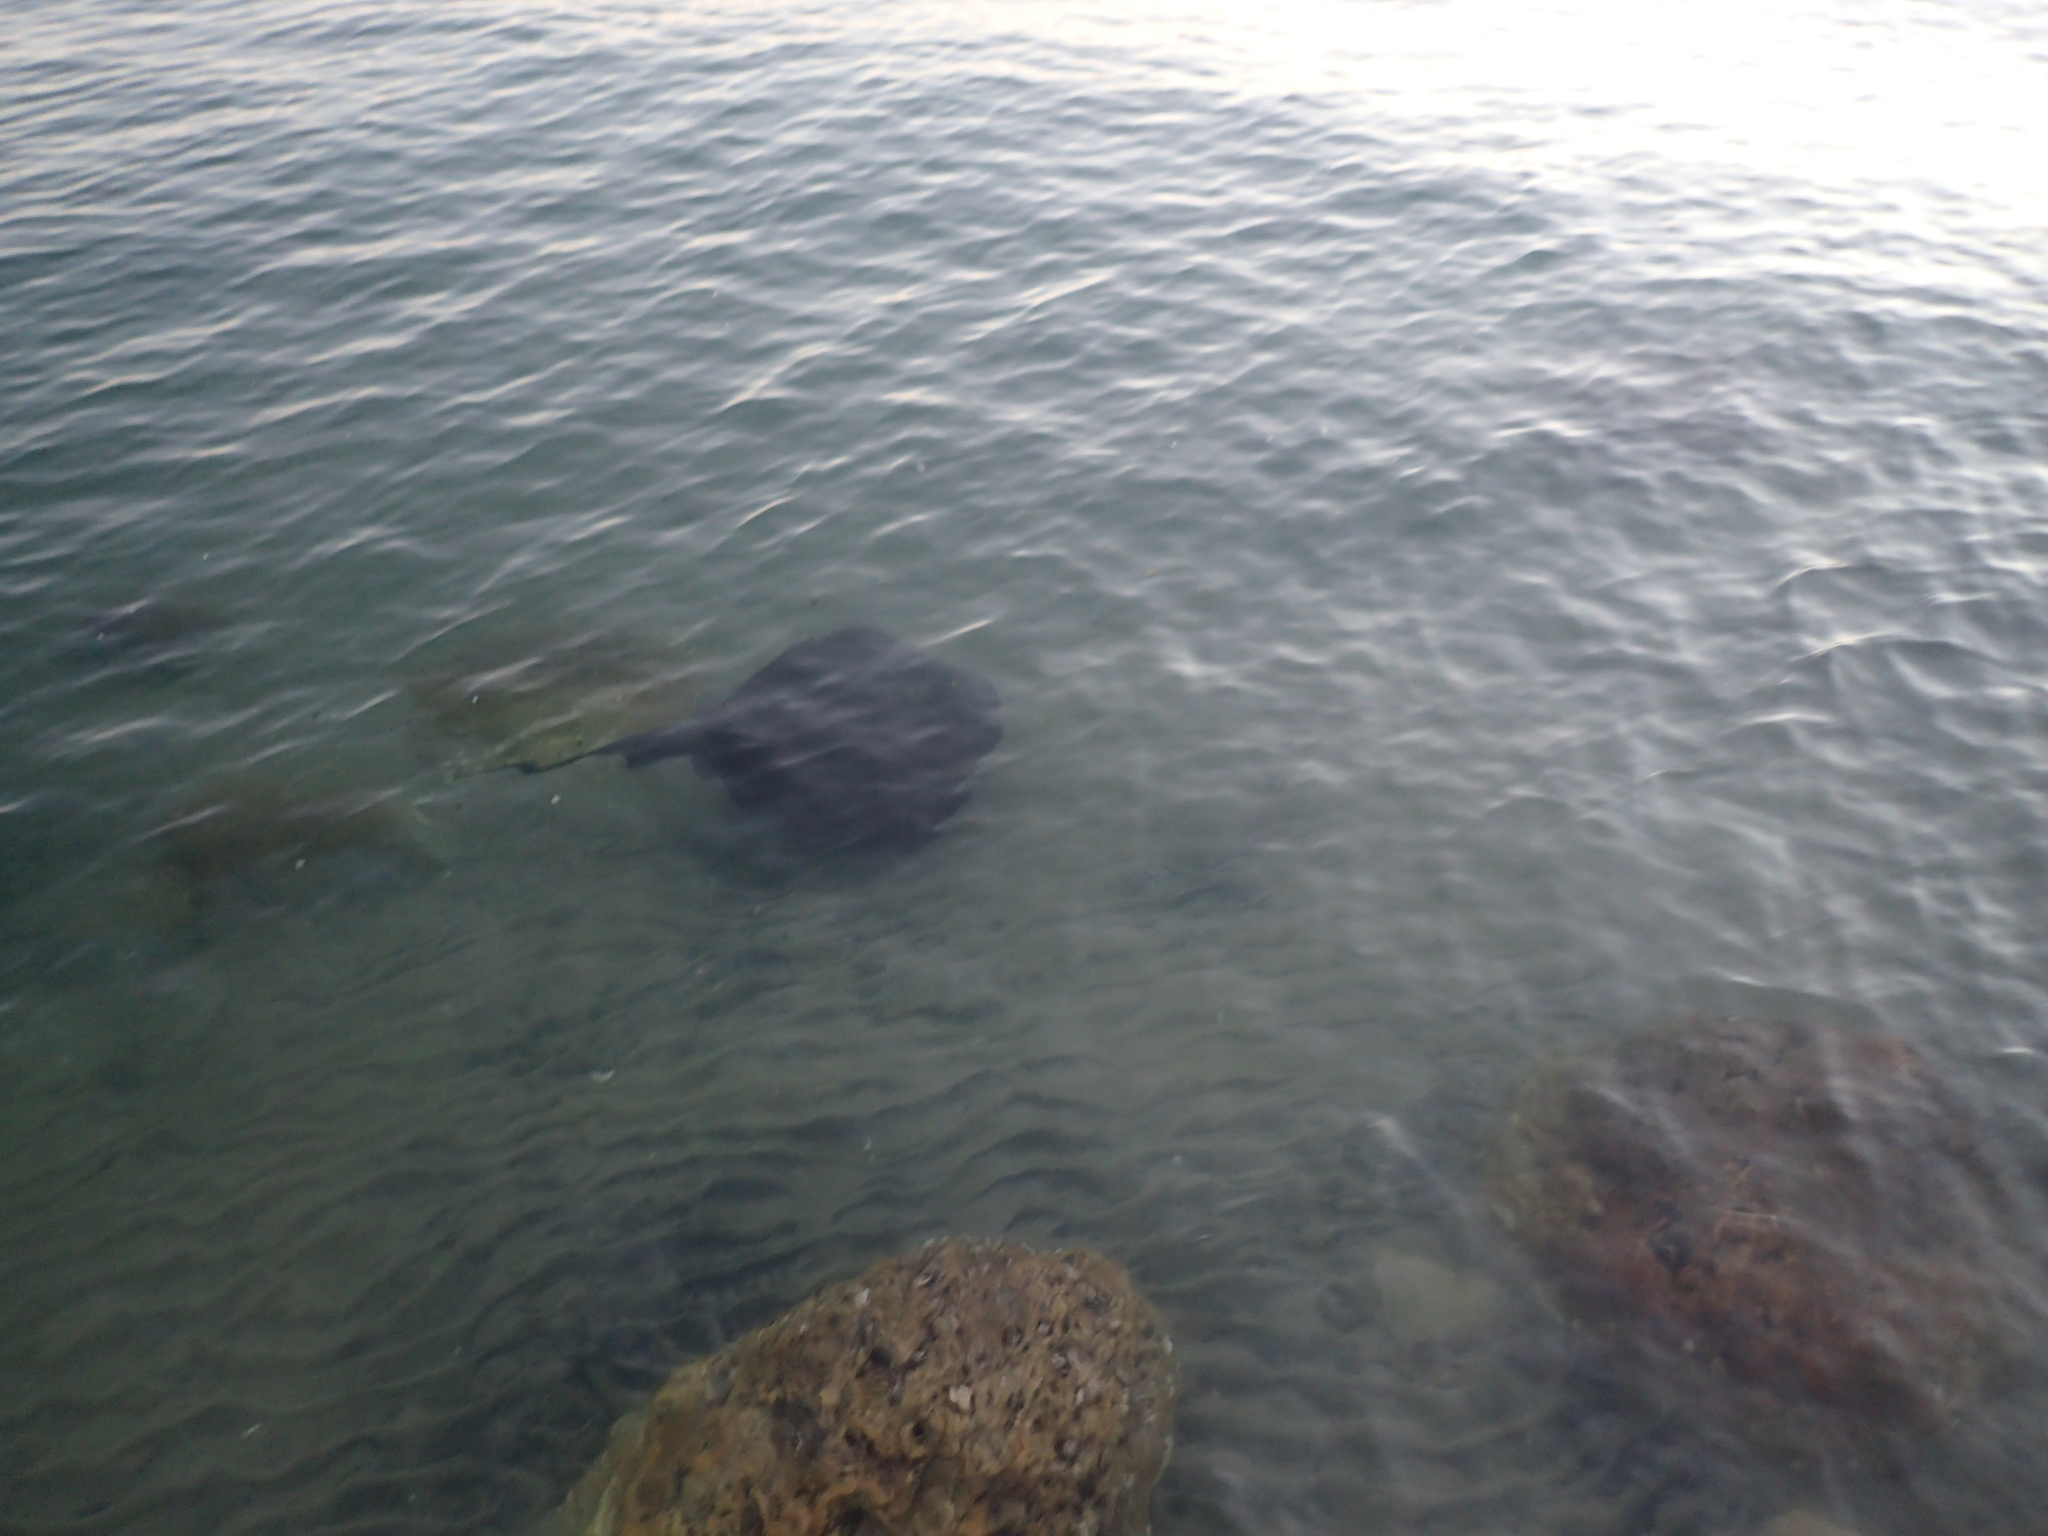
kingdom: Animalia
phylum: Chordata
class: Elasmobranchii
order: Myliobatiformes
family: Dasyatidae
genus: Bathytoshia
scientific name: Bathytoshia brevicaudata
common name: Short-tail stingray
